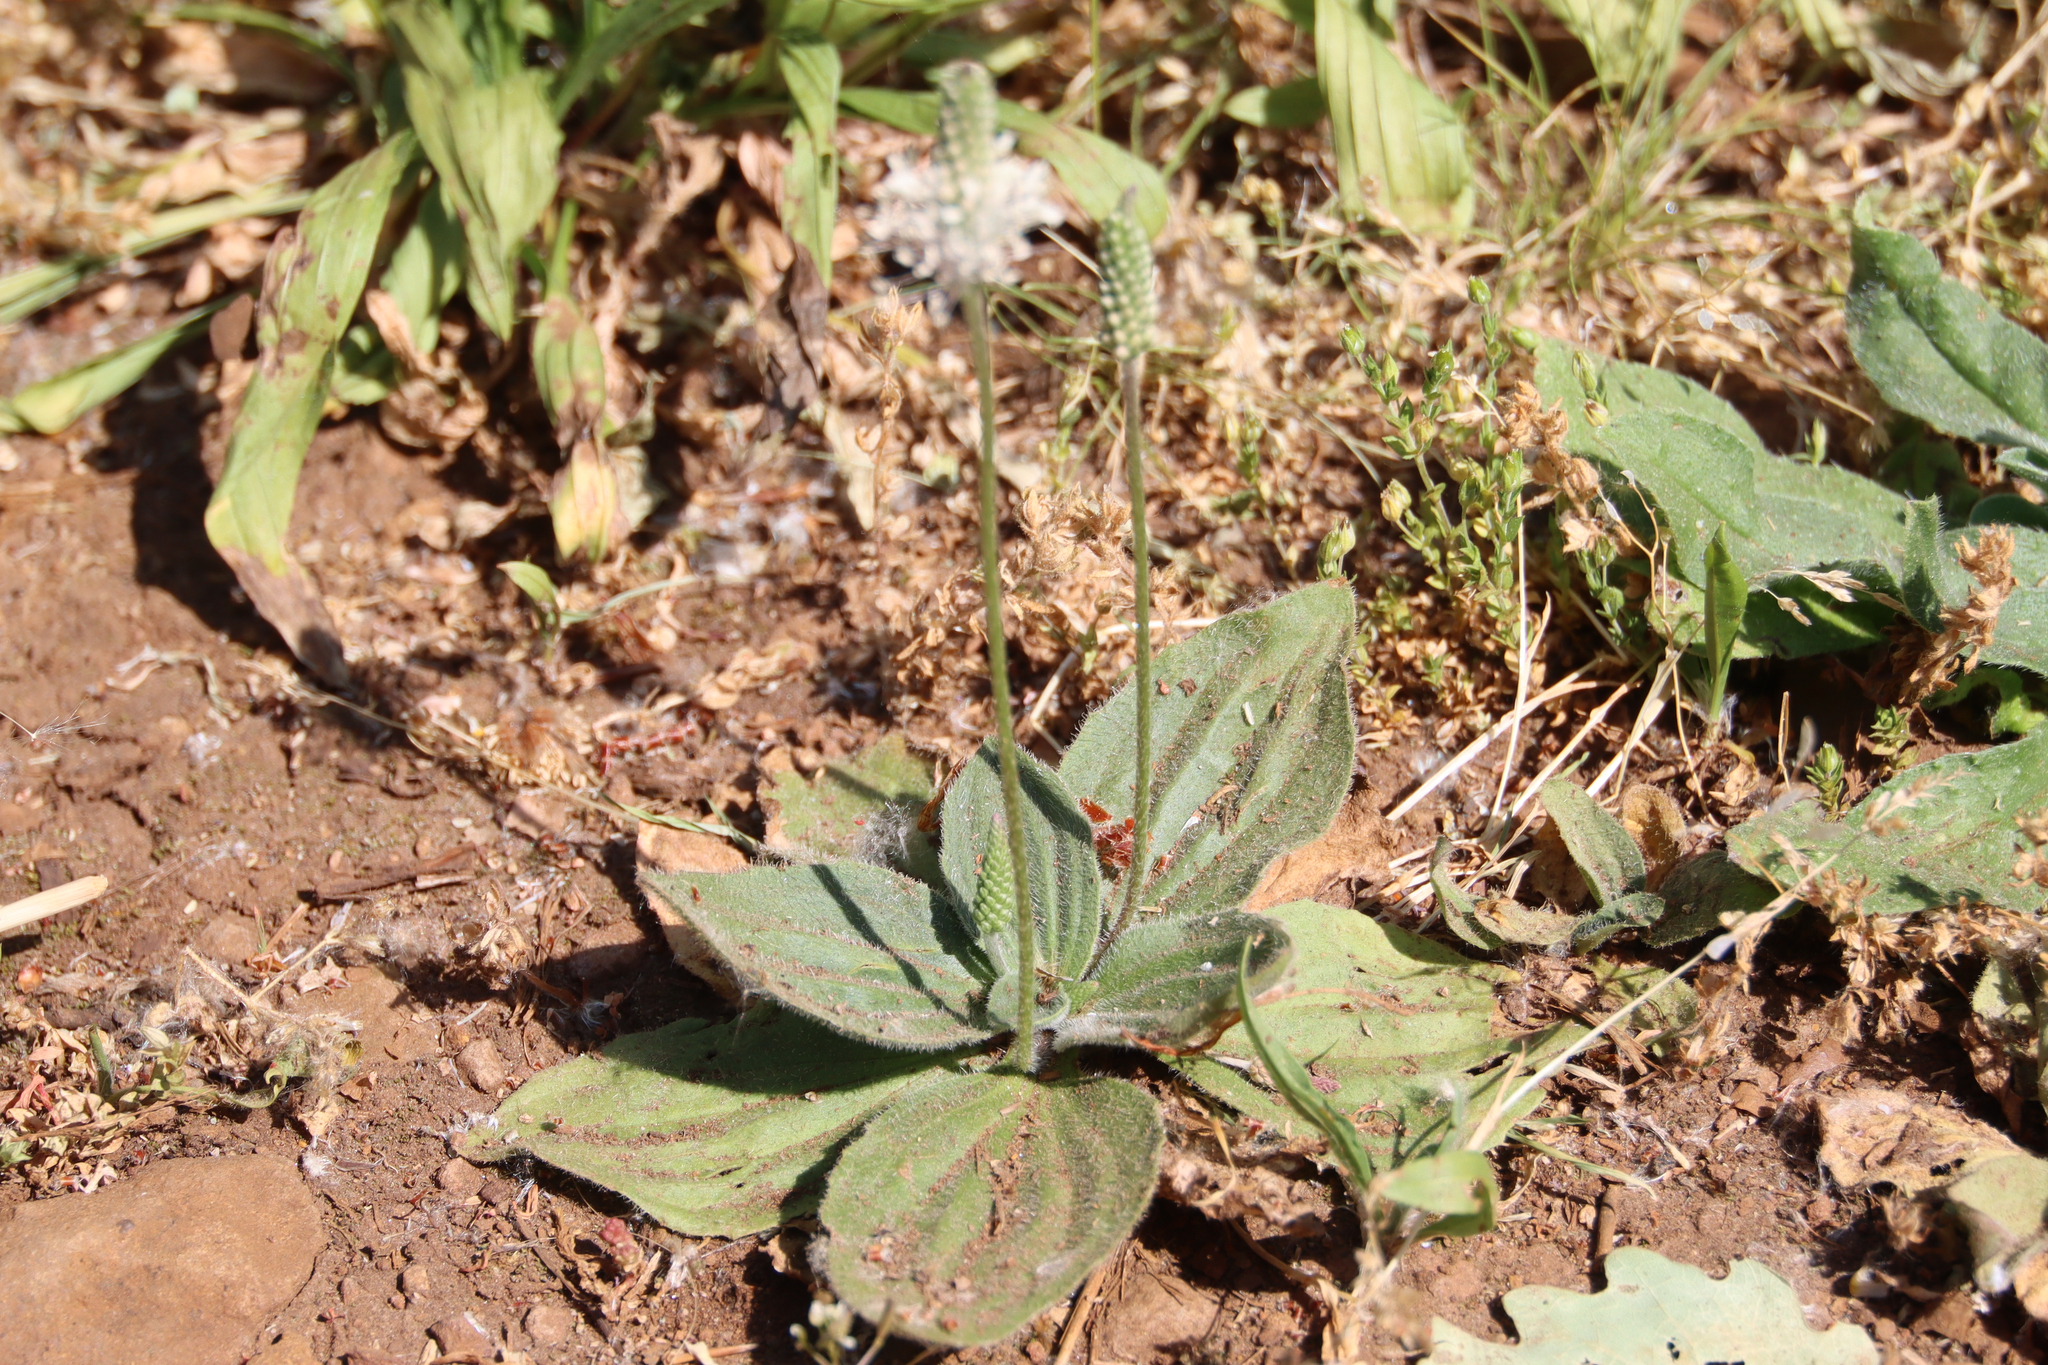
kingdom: Plantae
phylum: Tracheophyta
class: Magnoliopsida
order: Lamiales
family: Plantaginaceae
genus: Plantago
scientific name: Plantago media
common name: Hoary plantain
